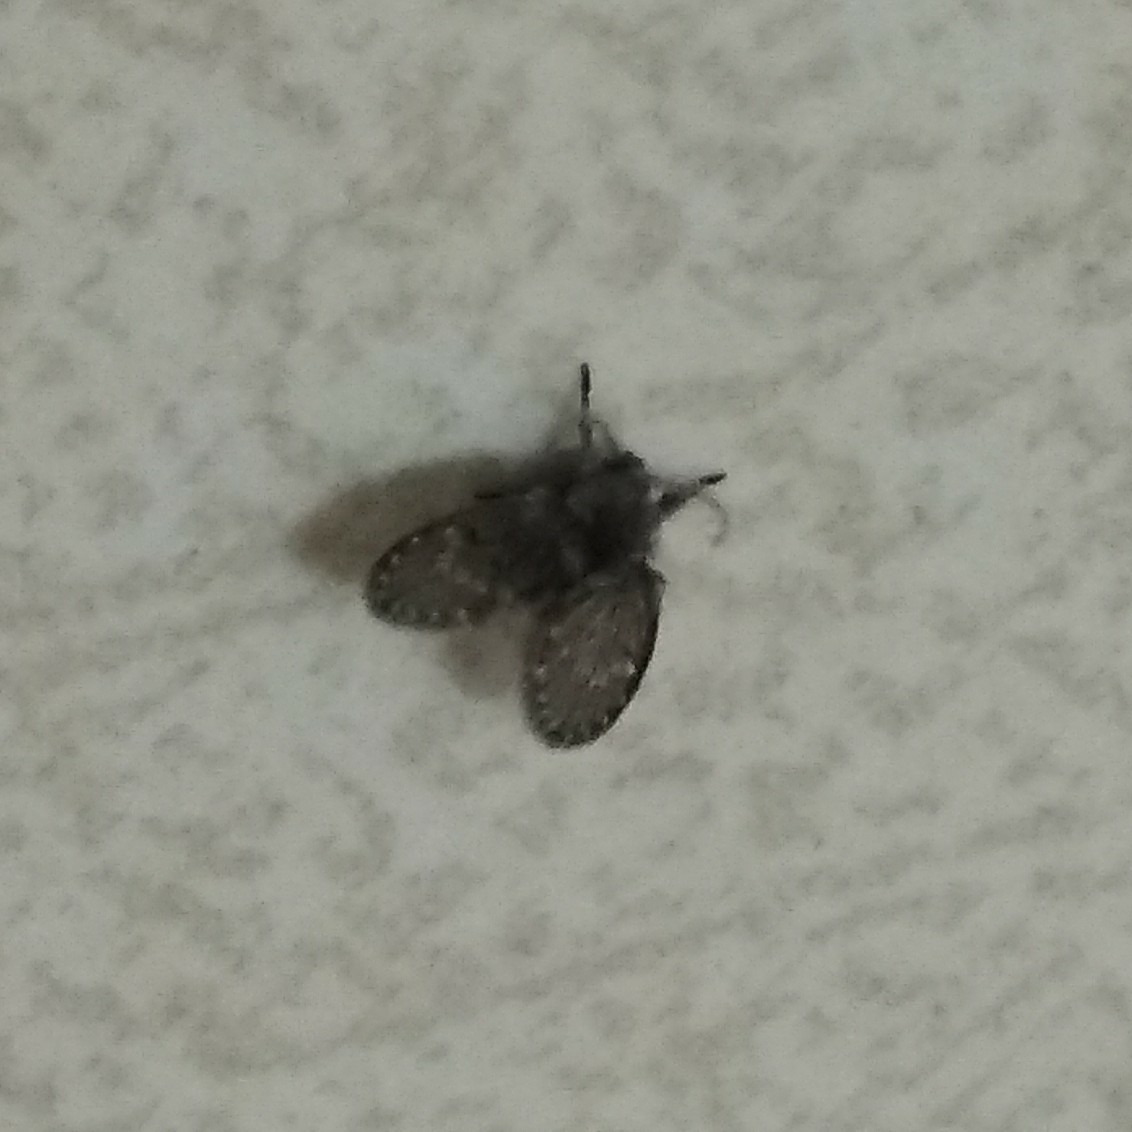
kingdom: Animalia
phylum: Arthropoda
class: Insecta
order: Diptera
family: Psychodidae
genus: Clogmia
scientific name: Clogmia albipunctatus
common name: White-spotted moth fly
